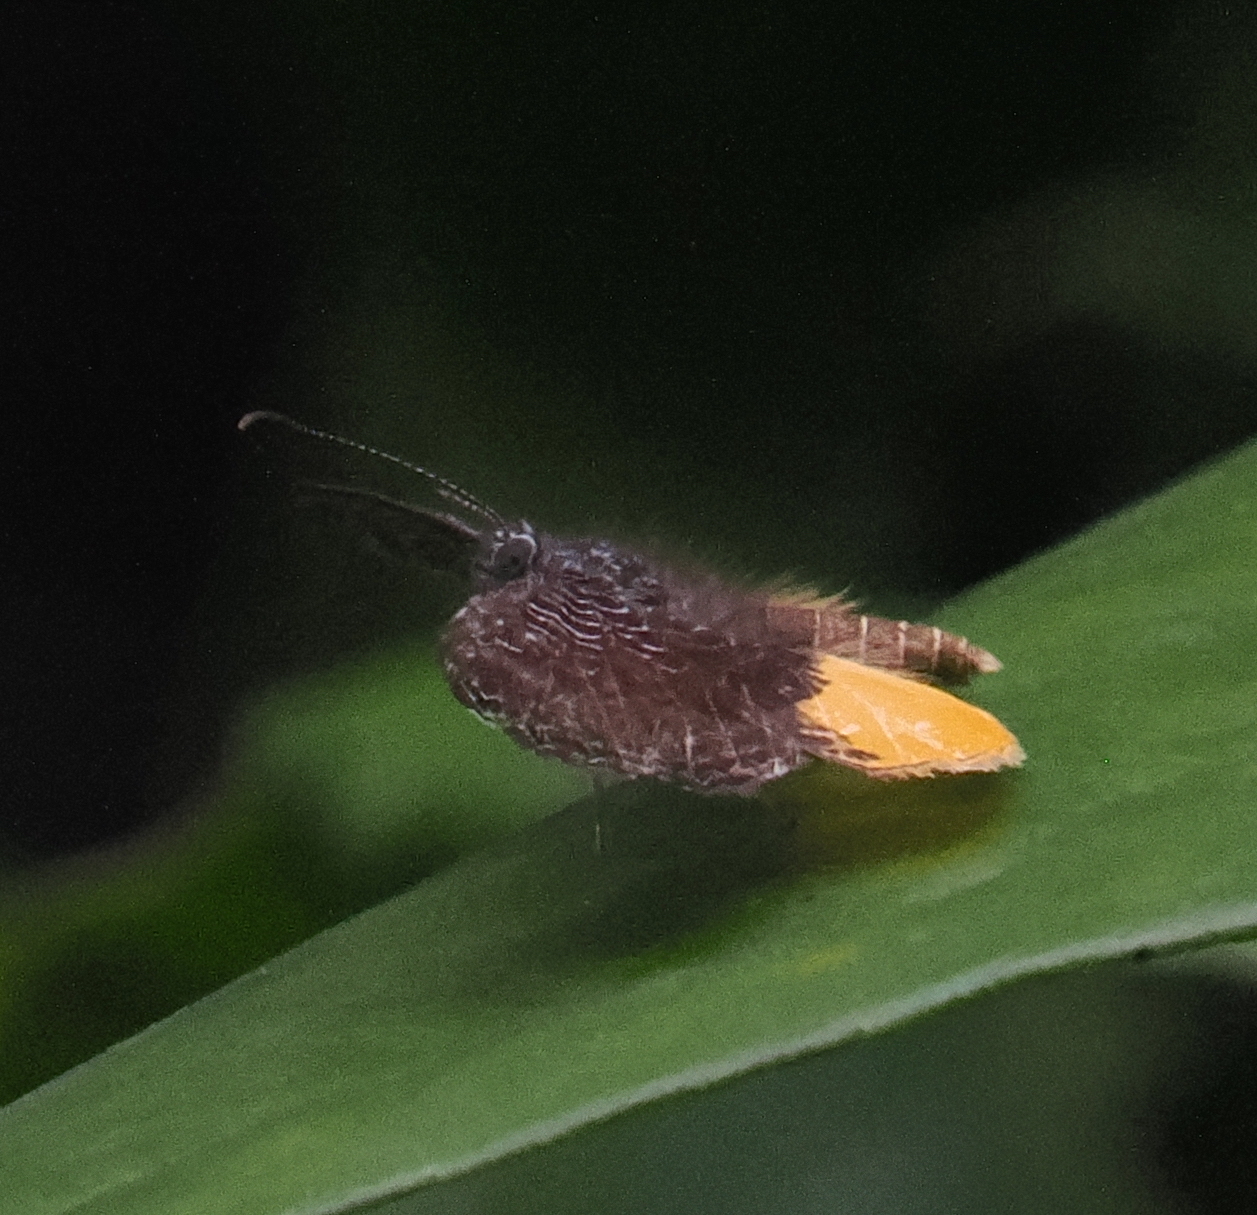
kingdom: Animalia
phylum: Arthropoda
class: Insecta
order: Lepidoptera
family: Riodinidae
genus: Catocyclotis
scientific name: Catocyclotis
